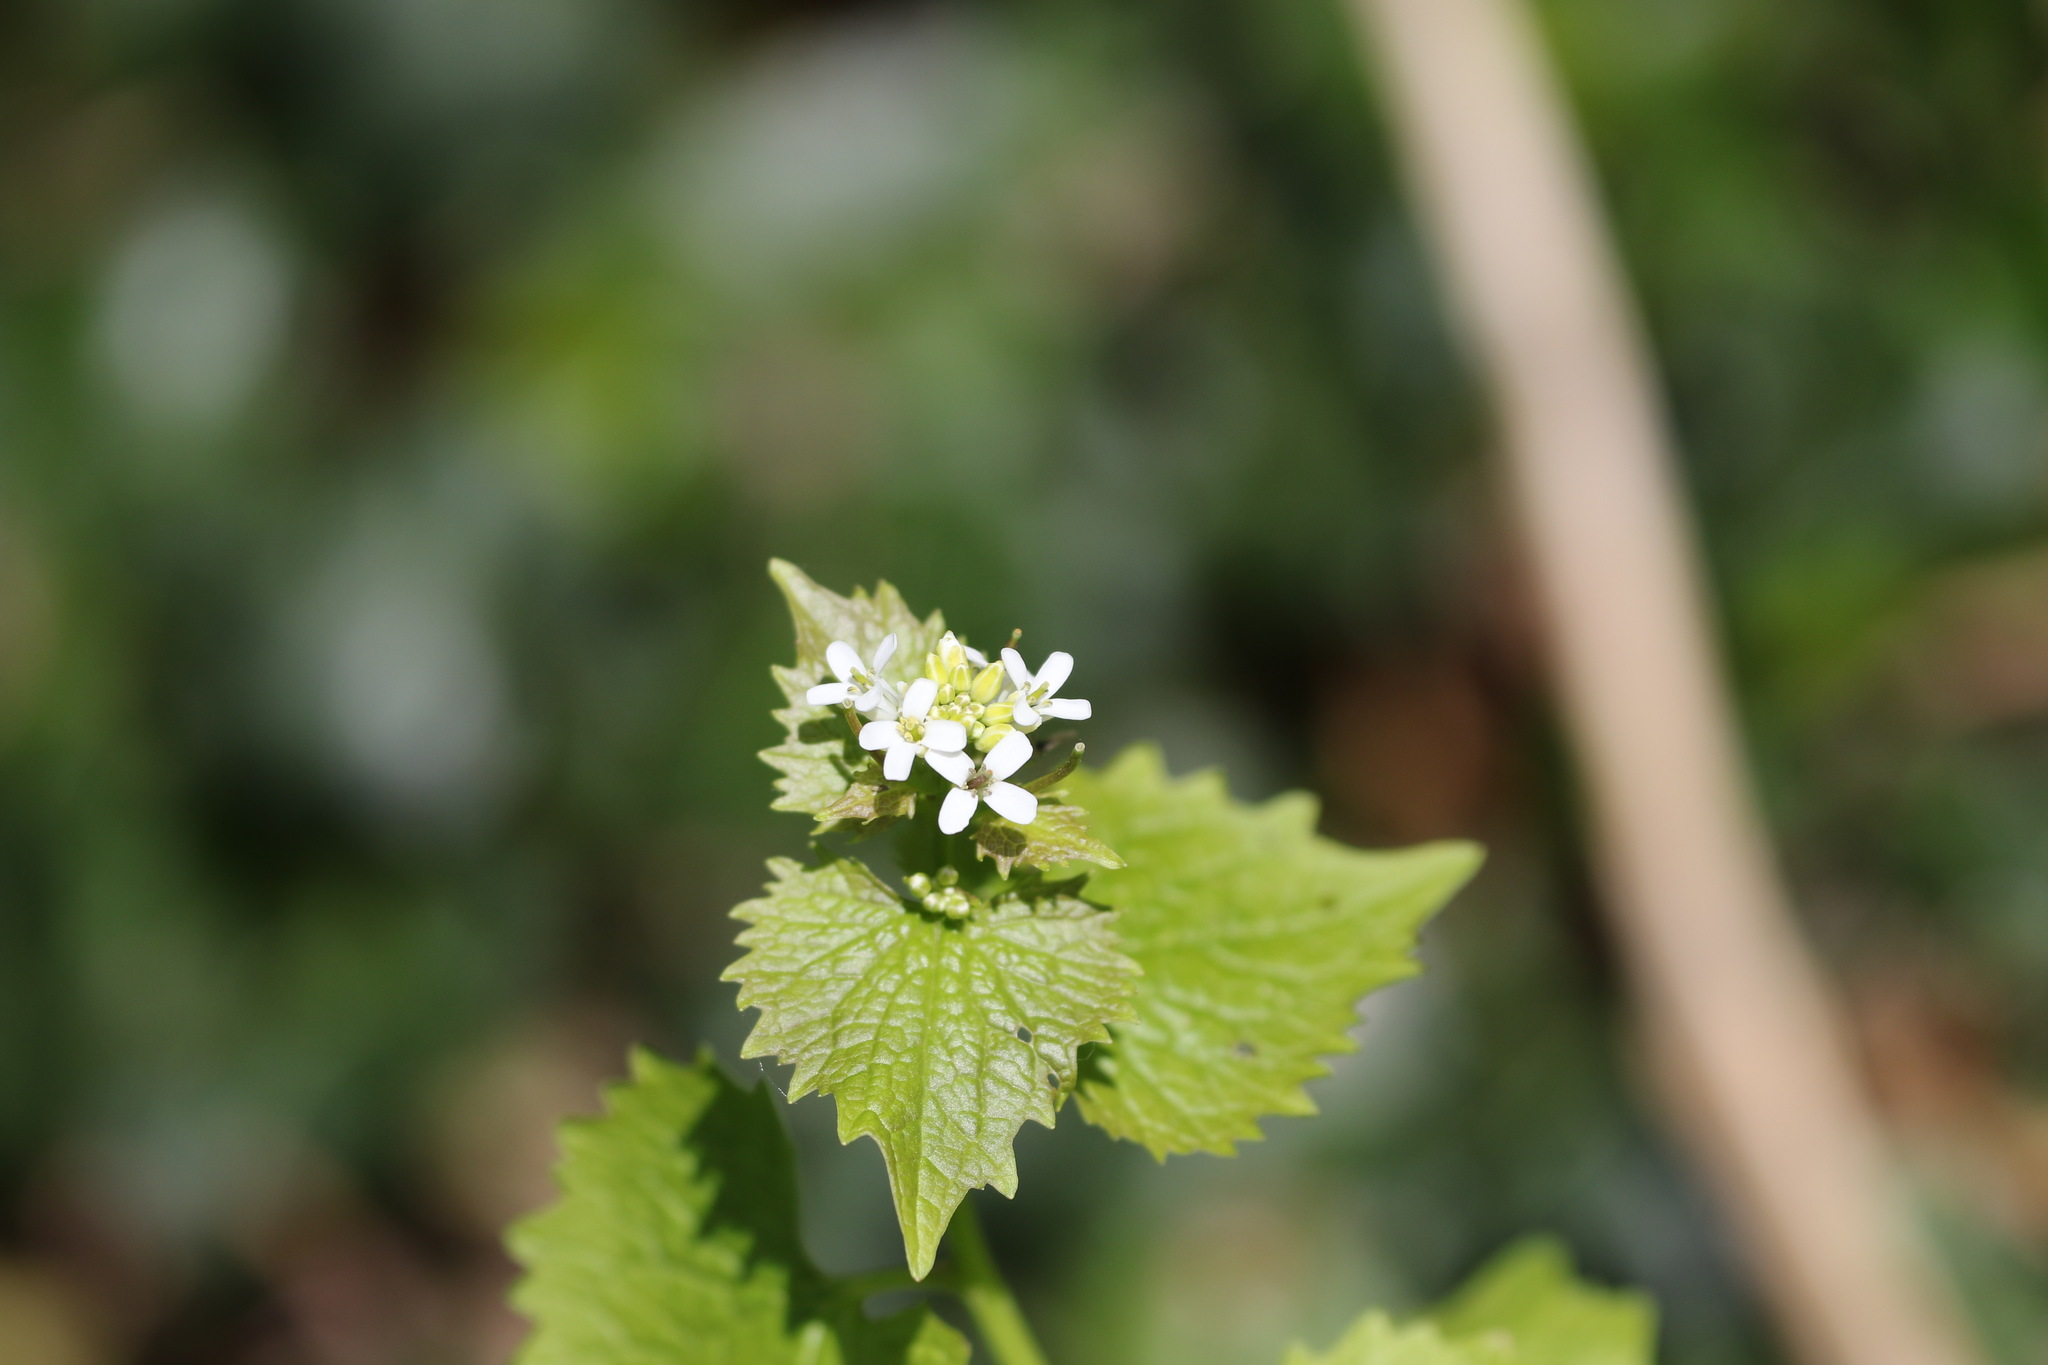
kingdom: Plantae
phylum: Tracheophyta
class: Magnoliopsida
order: Brassicales
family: Brassicaceae
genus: Alliaria
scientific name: Alliaria petiolata
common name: Garlic mustard
